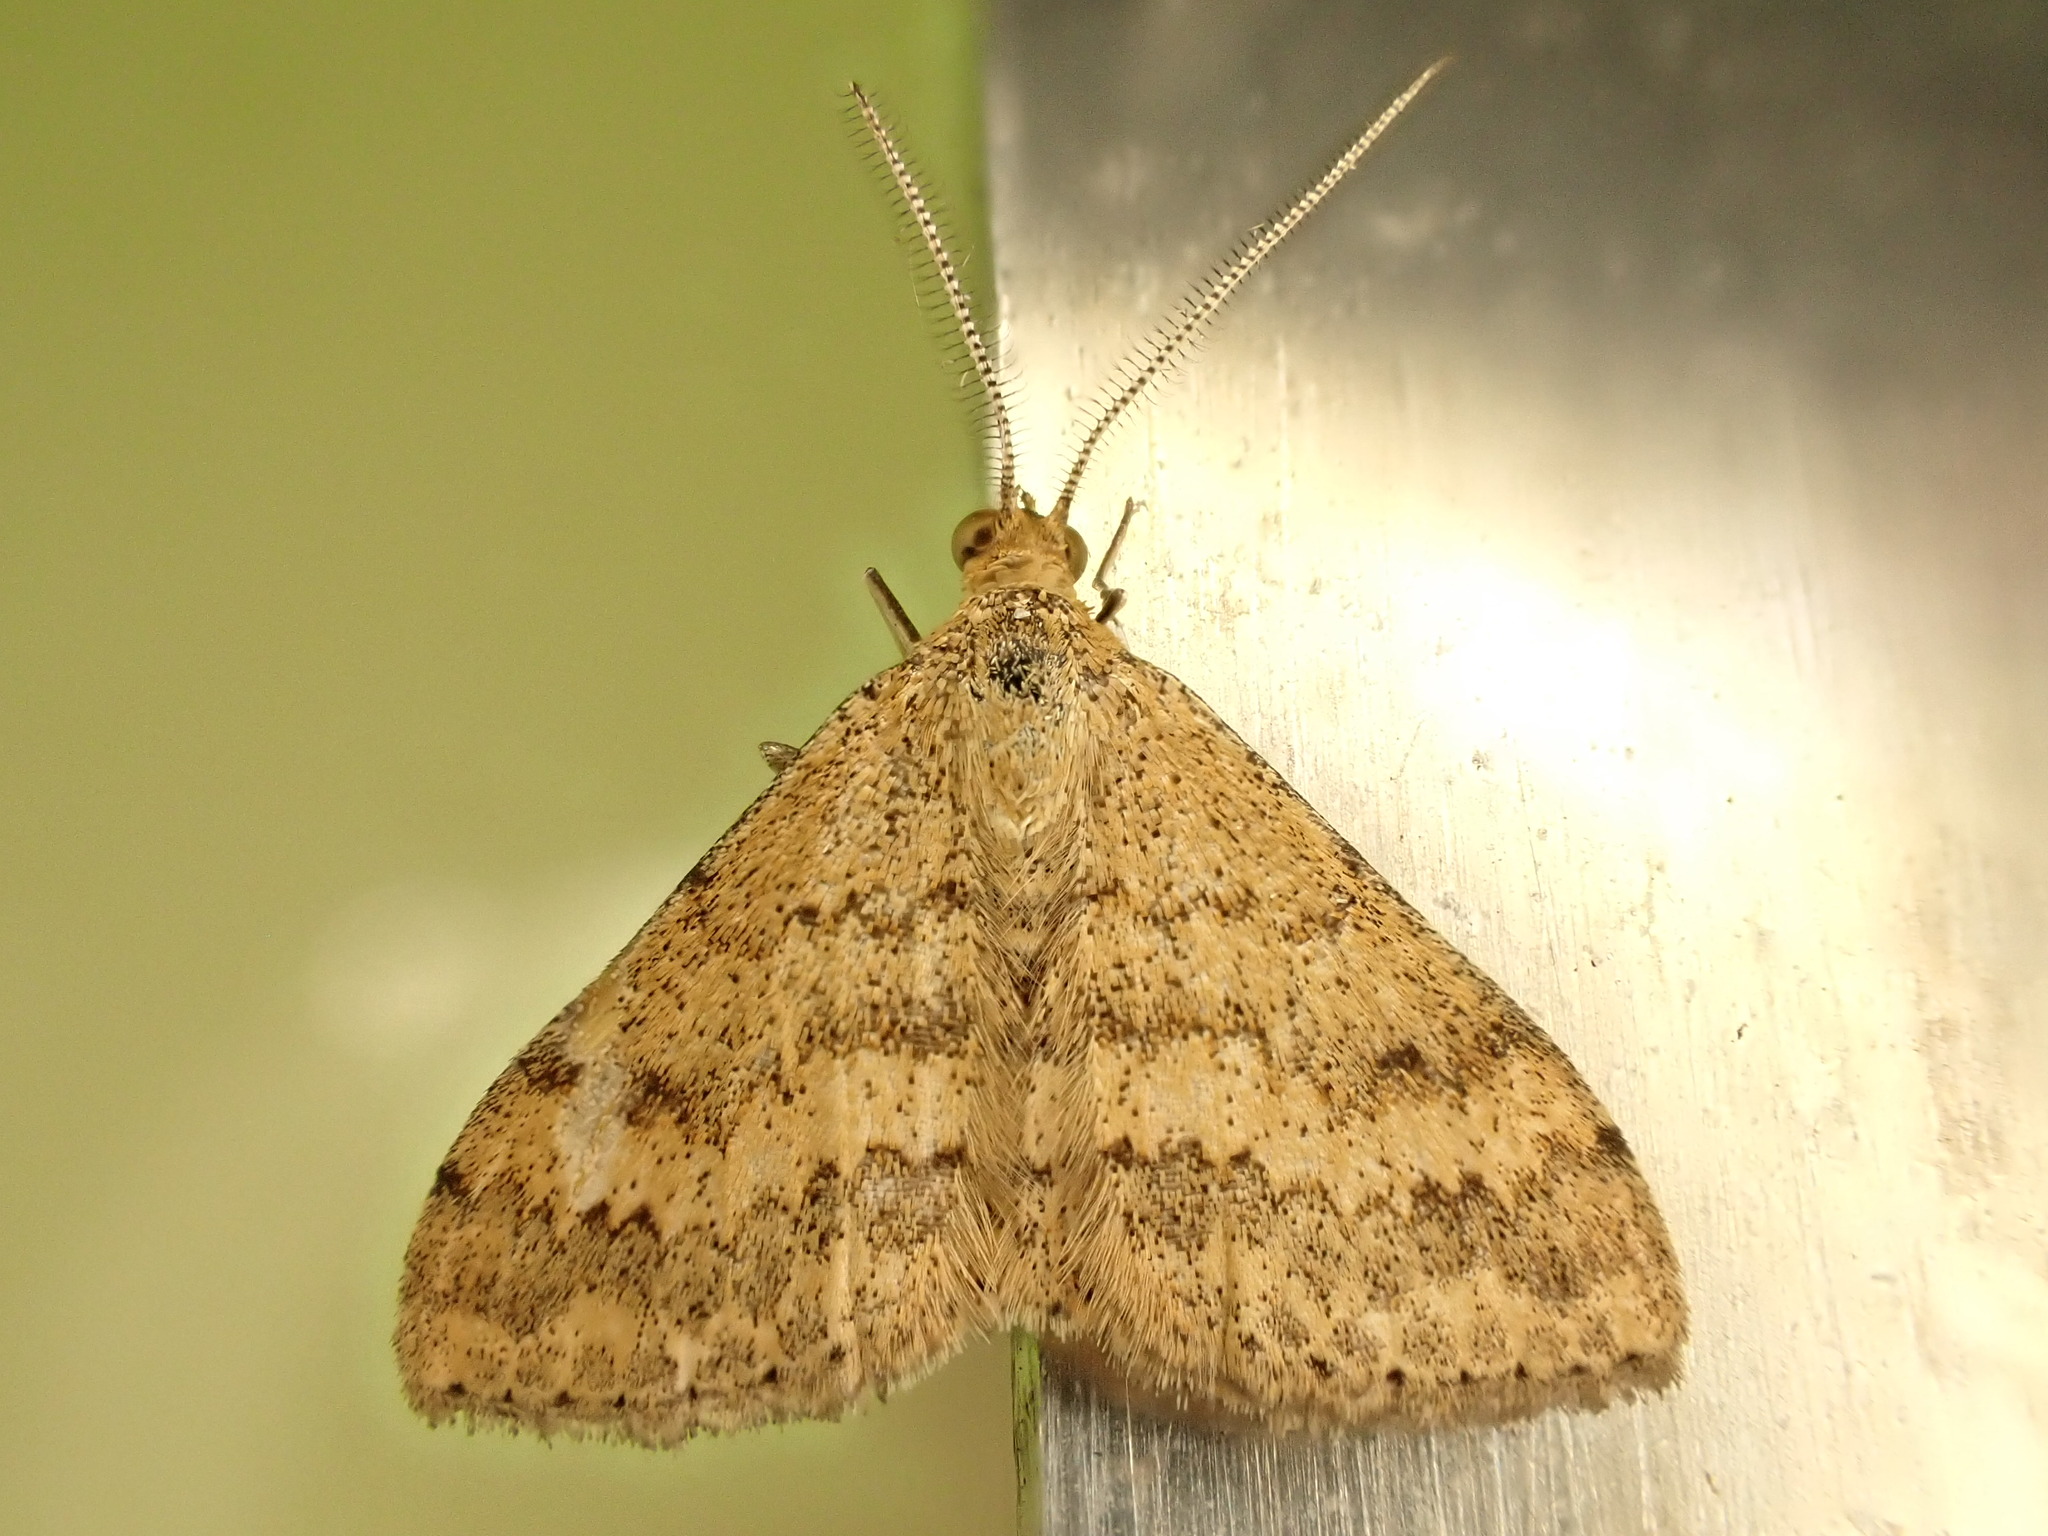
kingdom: Animalia
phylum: Arthropoda
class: Insecta
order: Lepidoptera
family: Geometridae
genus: Scopula
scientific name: Scopula rubraria
